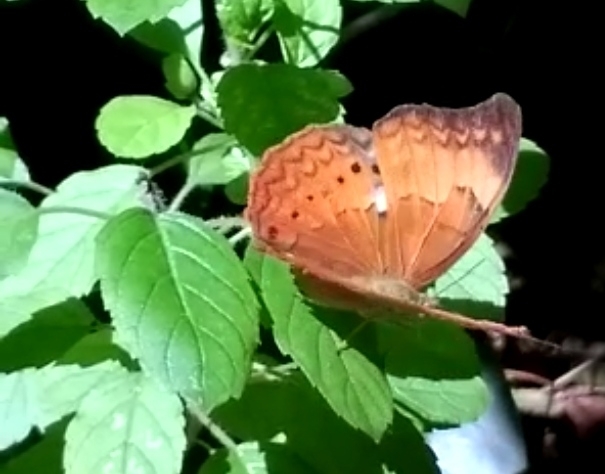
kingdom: Animalia
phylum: Arthropoda
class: Insecta
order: Lepidoptera
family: Nymphalidae
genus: Cirrochroa
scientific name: Cirrochroa thais
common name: Tamil yeoman
